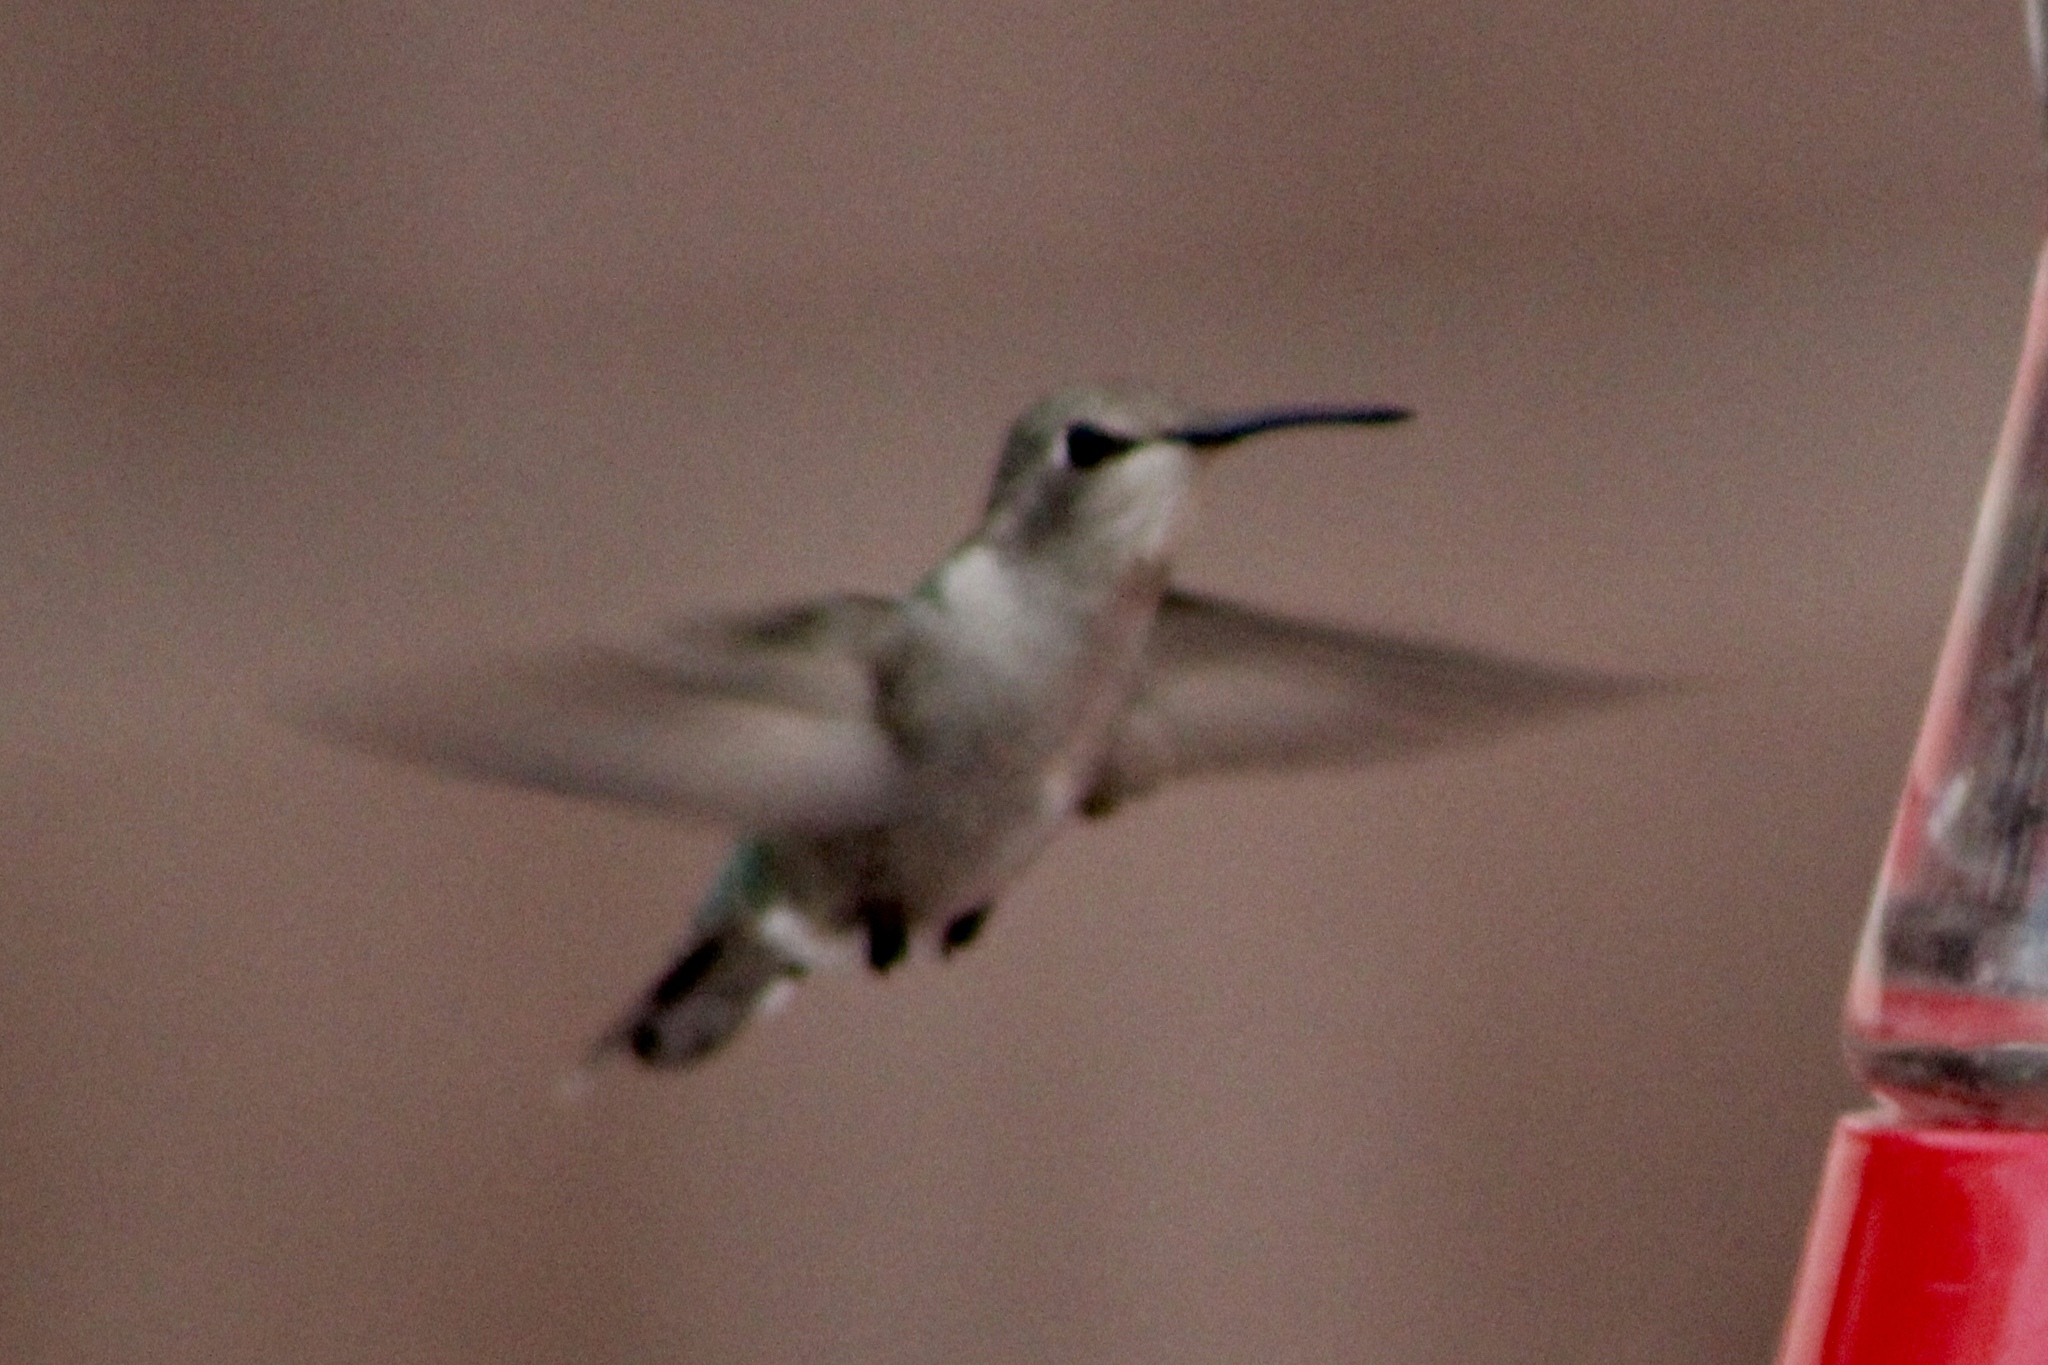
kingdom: Animalia
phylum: Chordata
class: Aves
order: Apodiformes
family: Trochilidae
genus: Archilochus
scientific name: Archilochus alexandri
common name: Black-chinned hummingbird
